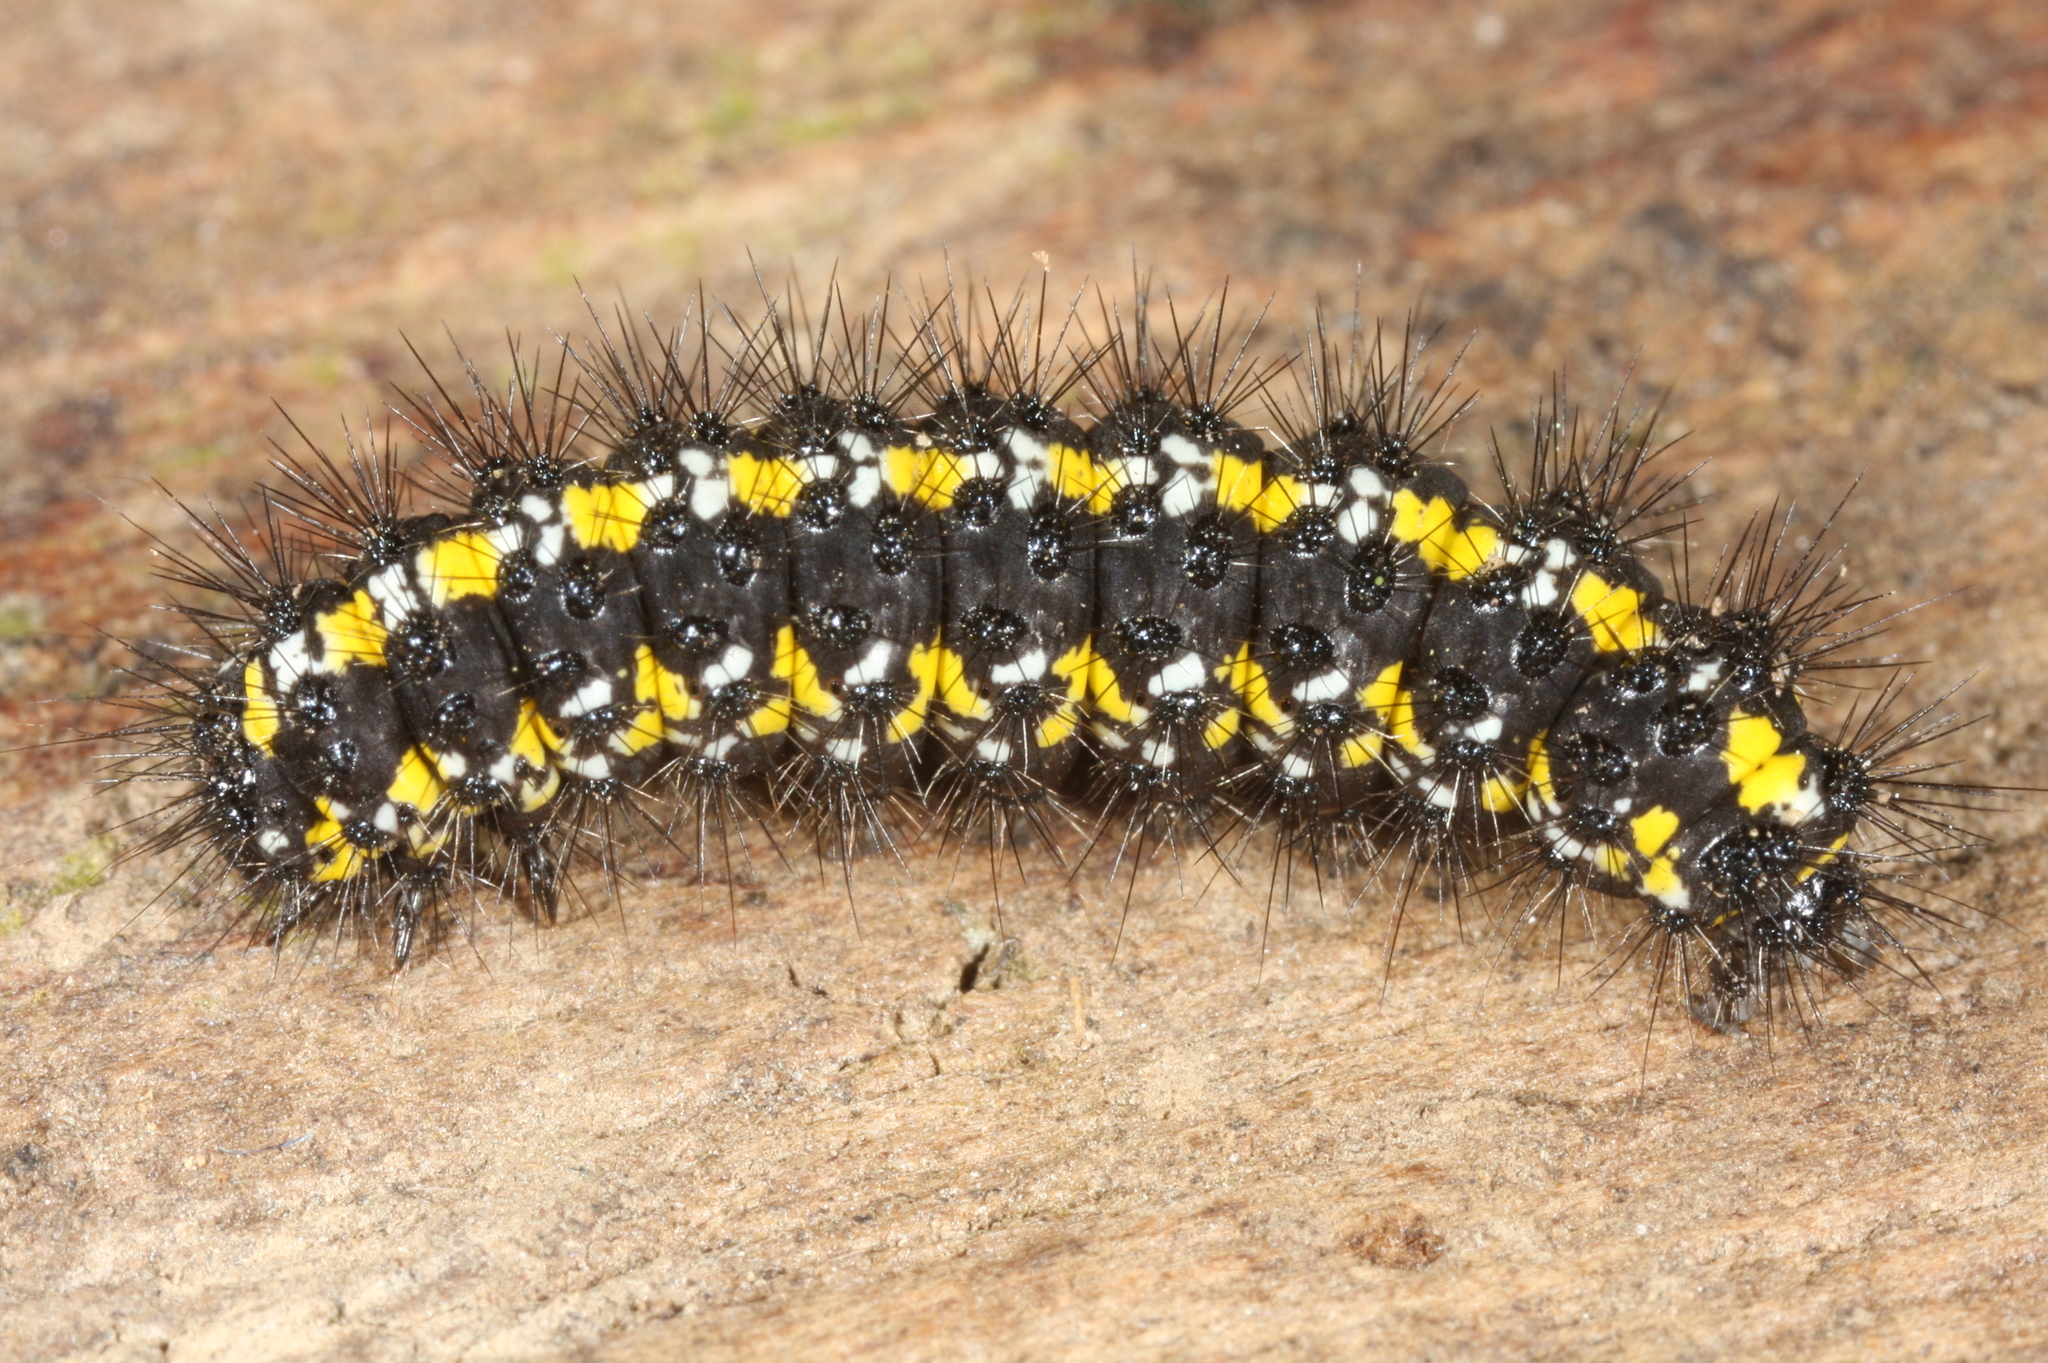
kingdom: Animalia
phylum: Arthropoda
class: Insecta
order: Lepidoptera
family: Erebidae
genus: Callimorpha
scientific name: Callimorpha dominula
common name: Scarlet tiger
